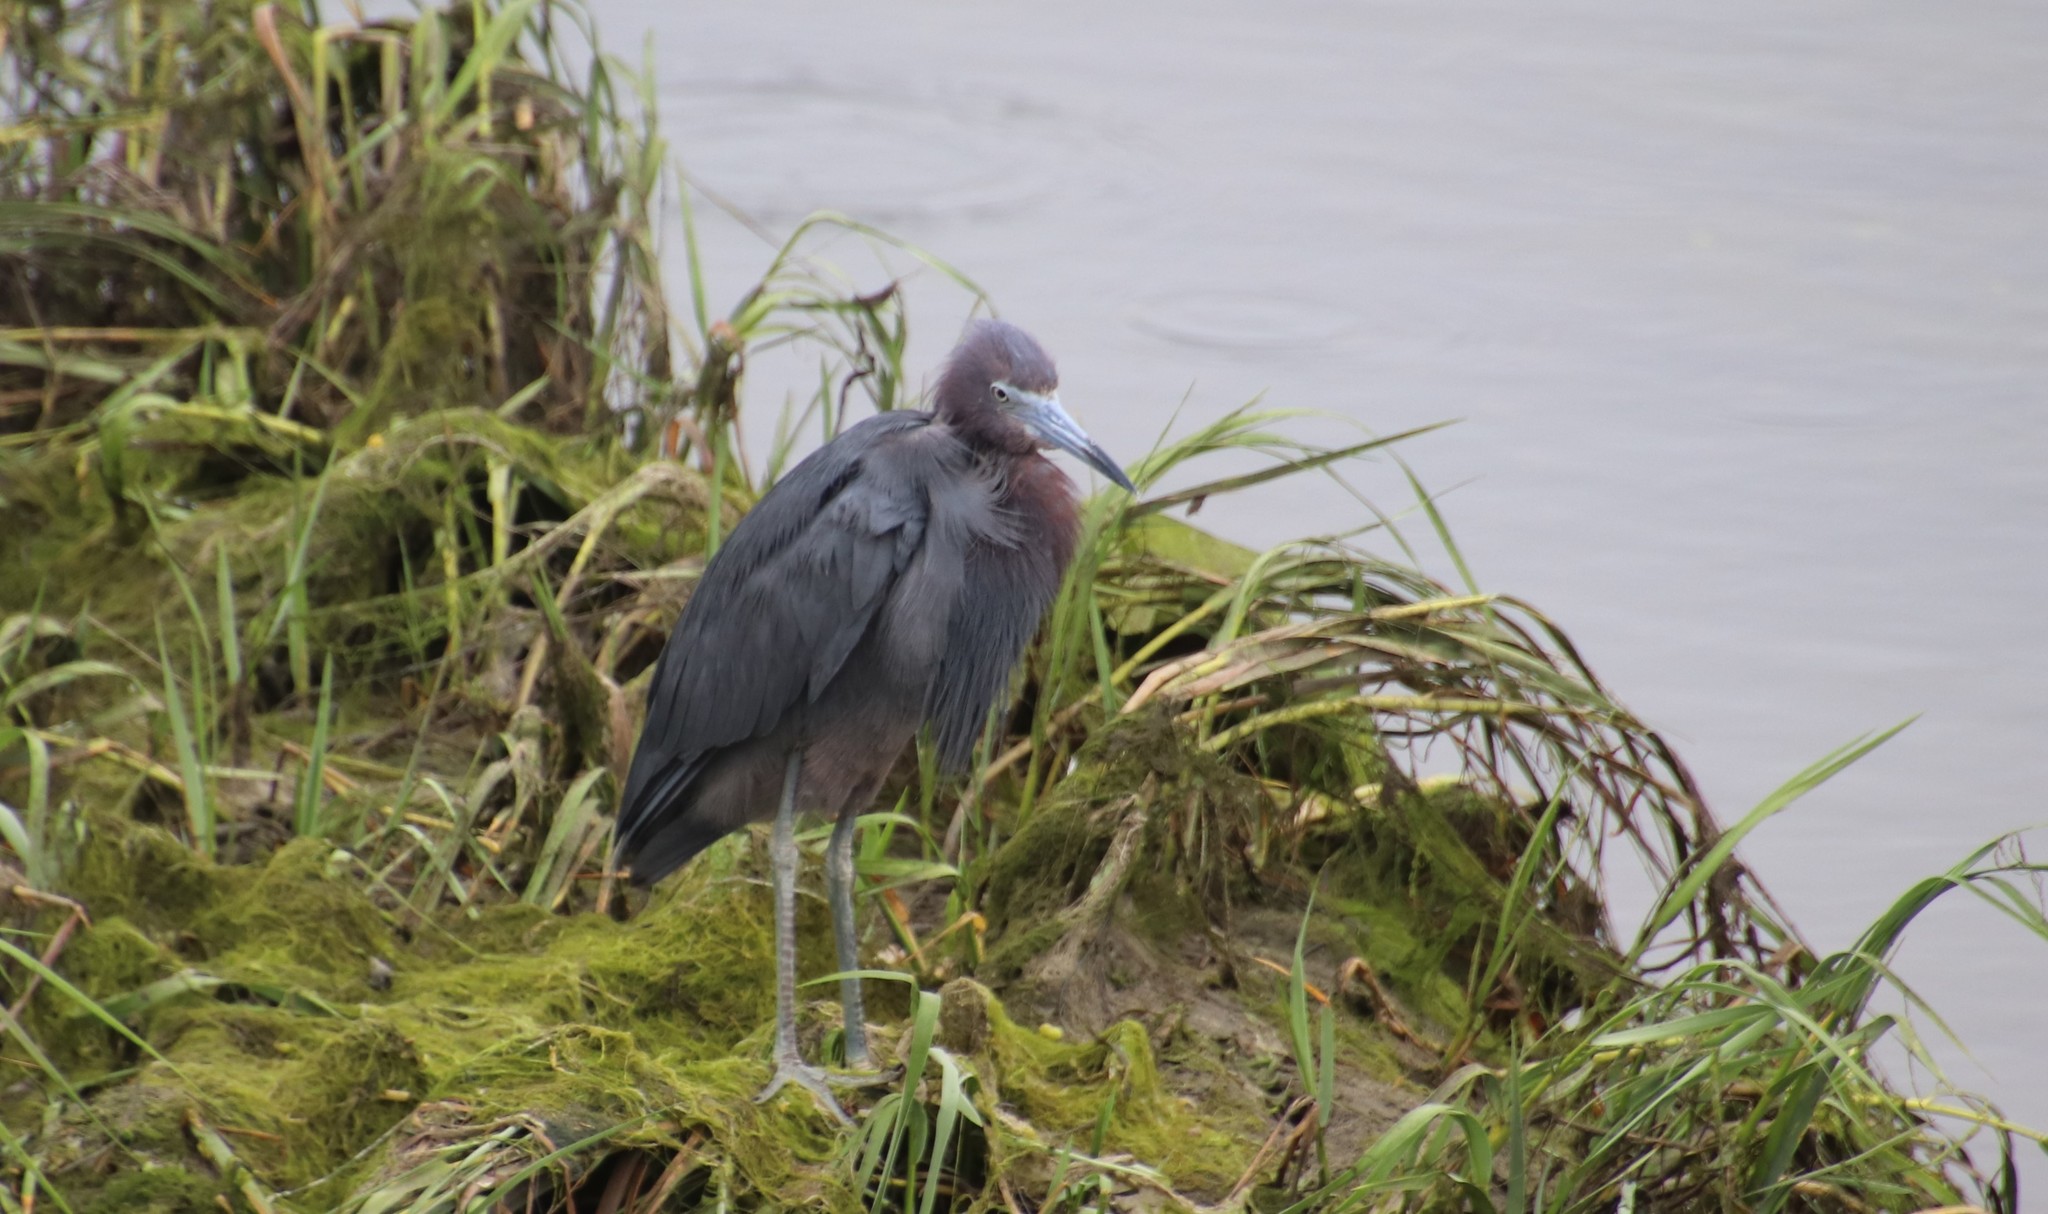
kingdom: Animalia
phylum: Chordata
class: Aves
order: Pelecaniformes
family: Ardeidae
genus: Egretta
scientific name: Egretta caerulea
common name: Little blue heron
